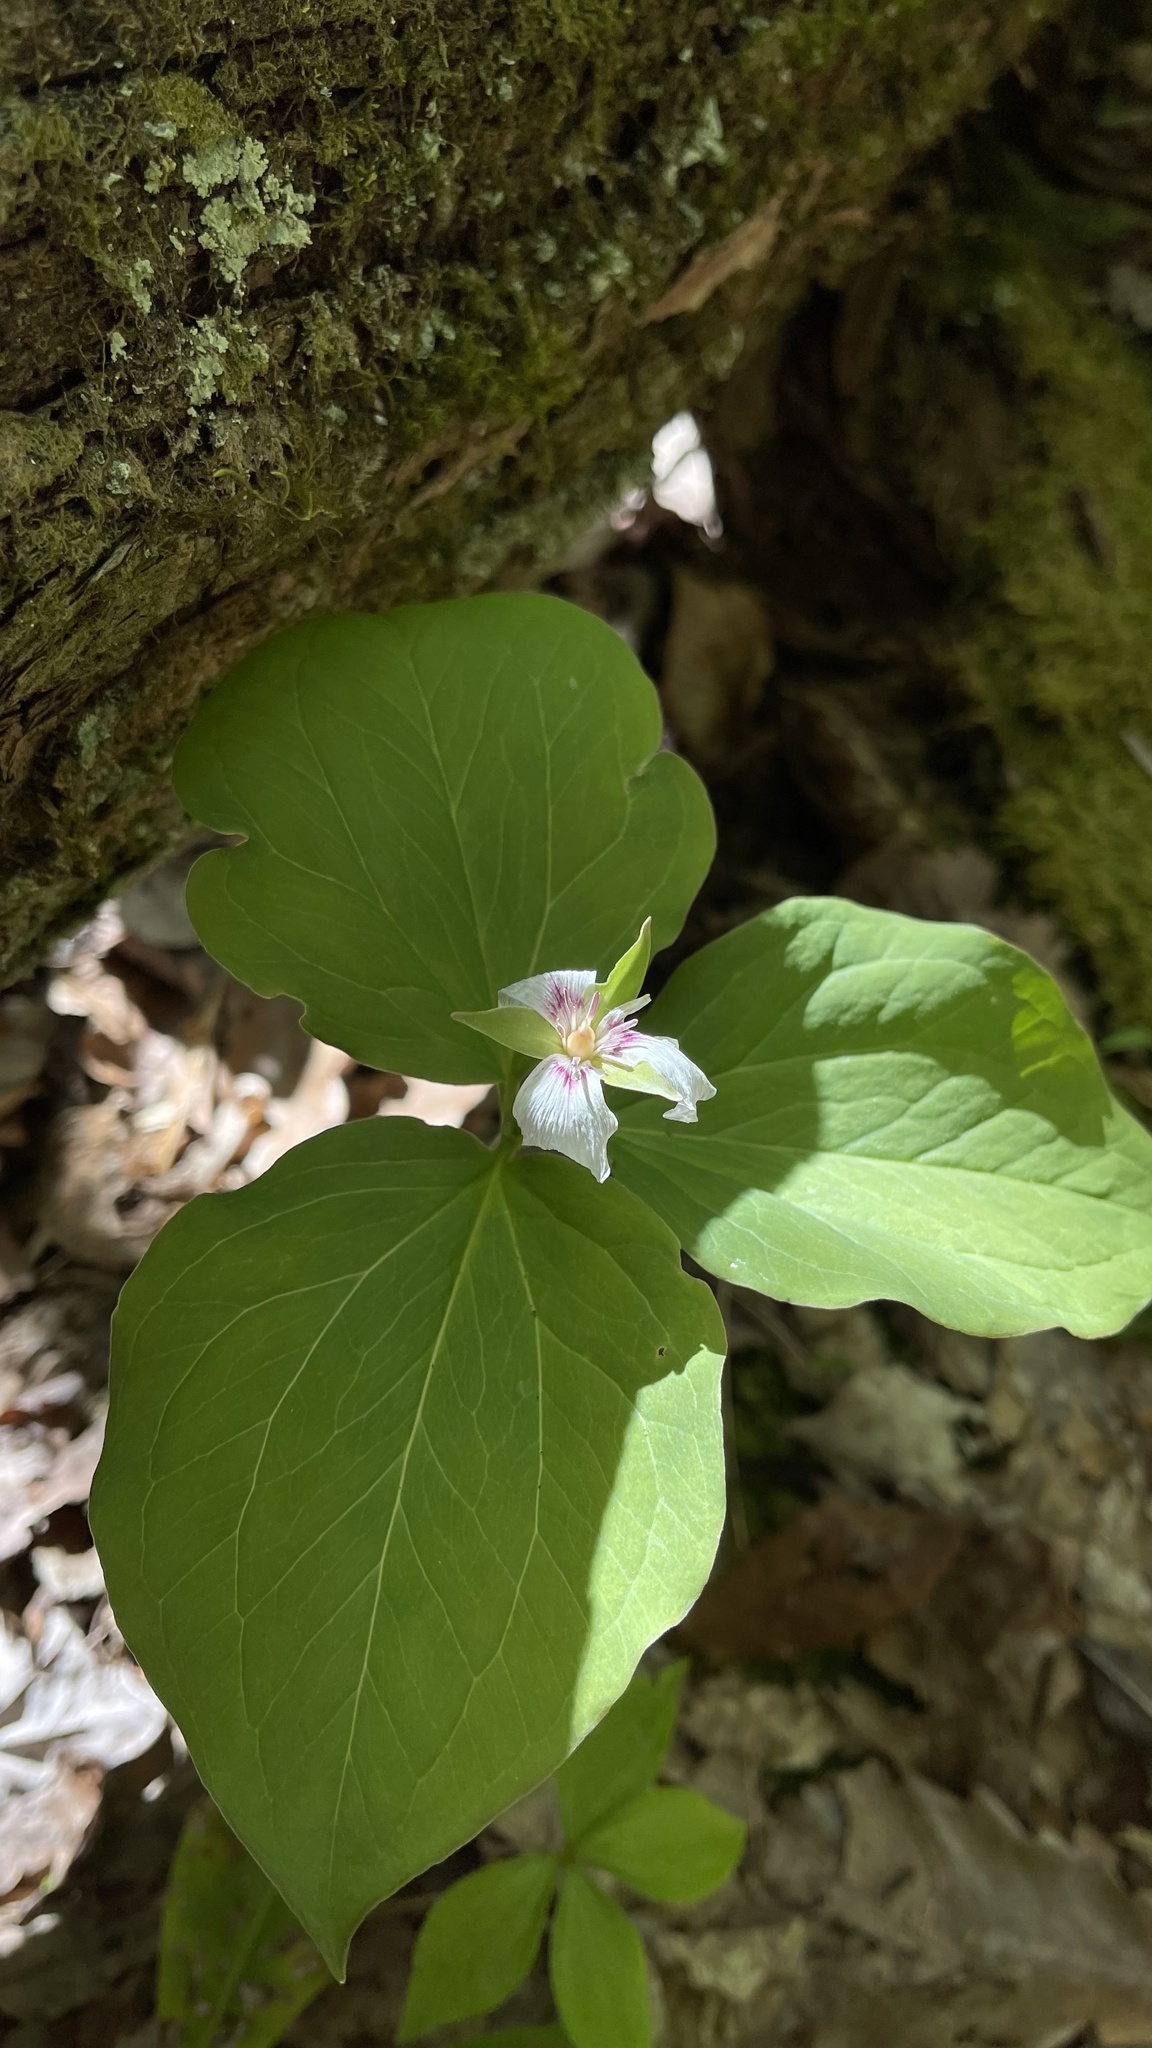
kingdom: Plantae
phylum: Tracheophyta
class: Liliopsida
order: Liliales
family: Melanthiaceae
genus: Trillium
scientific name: Trillium undulatum
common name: Paint trillium
